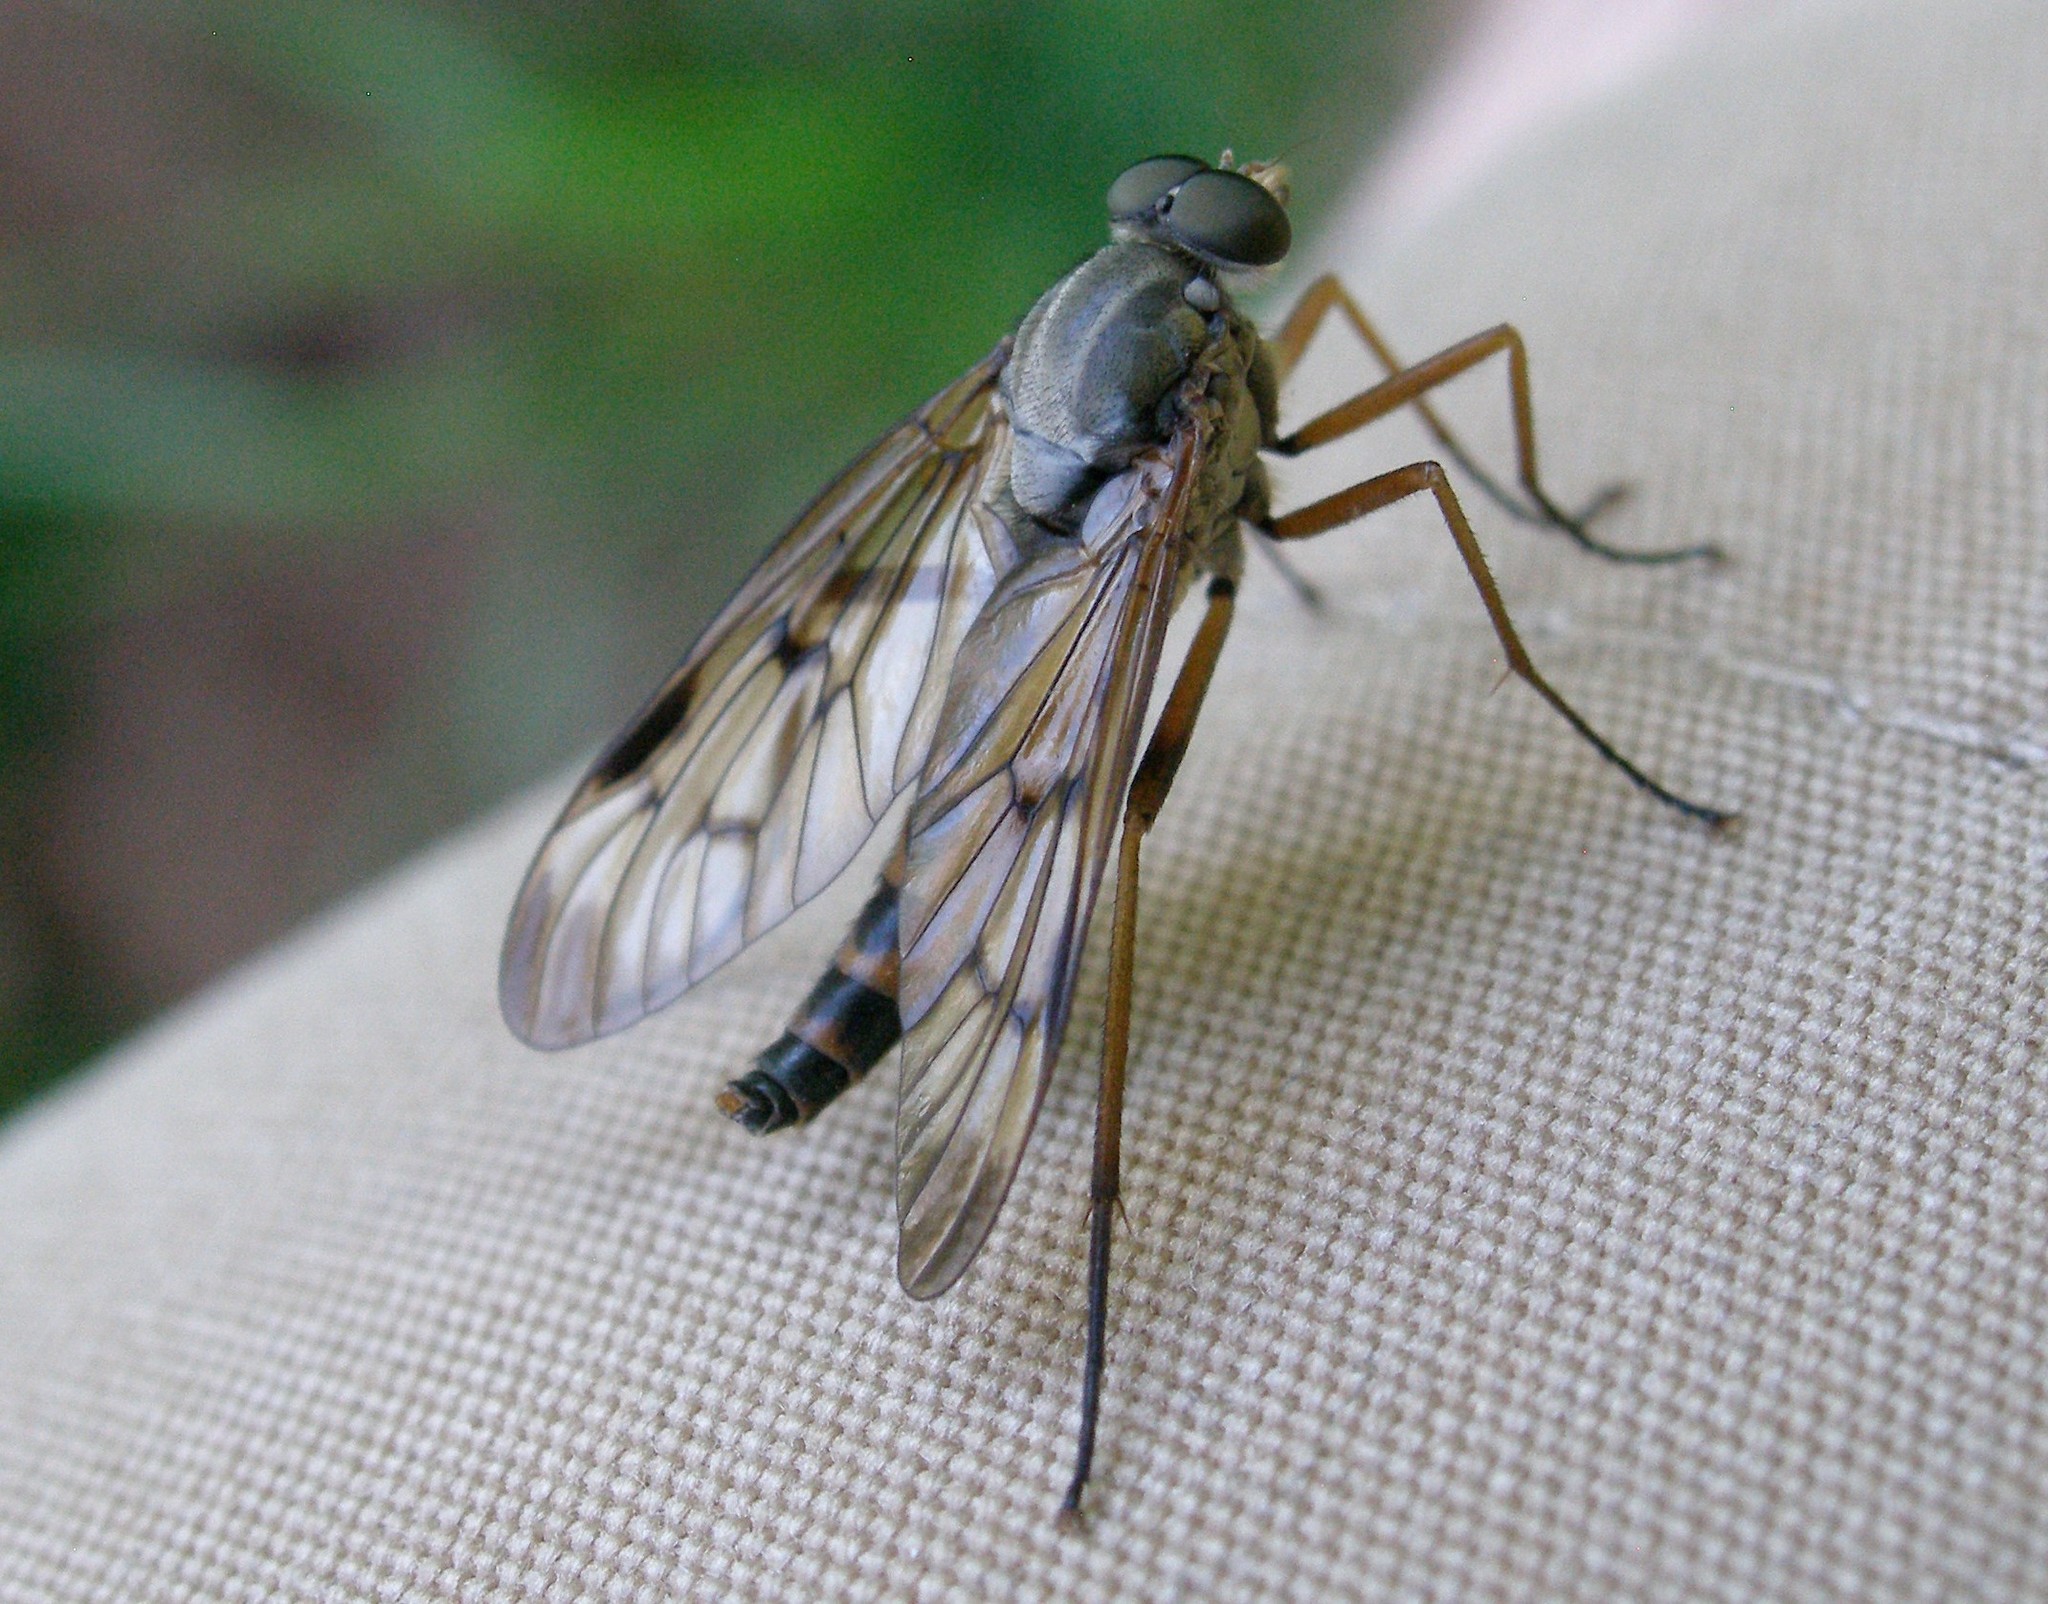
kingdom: Animalia
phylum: Arthropoda
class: Insecta
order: Diptera
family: Rhagionidae
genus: Rhagio
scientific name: Rhagio scolopacea
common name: Downlooker snipefly
